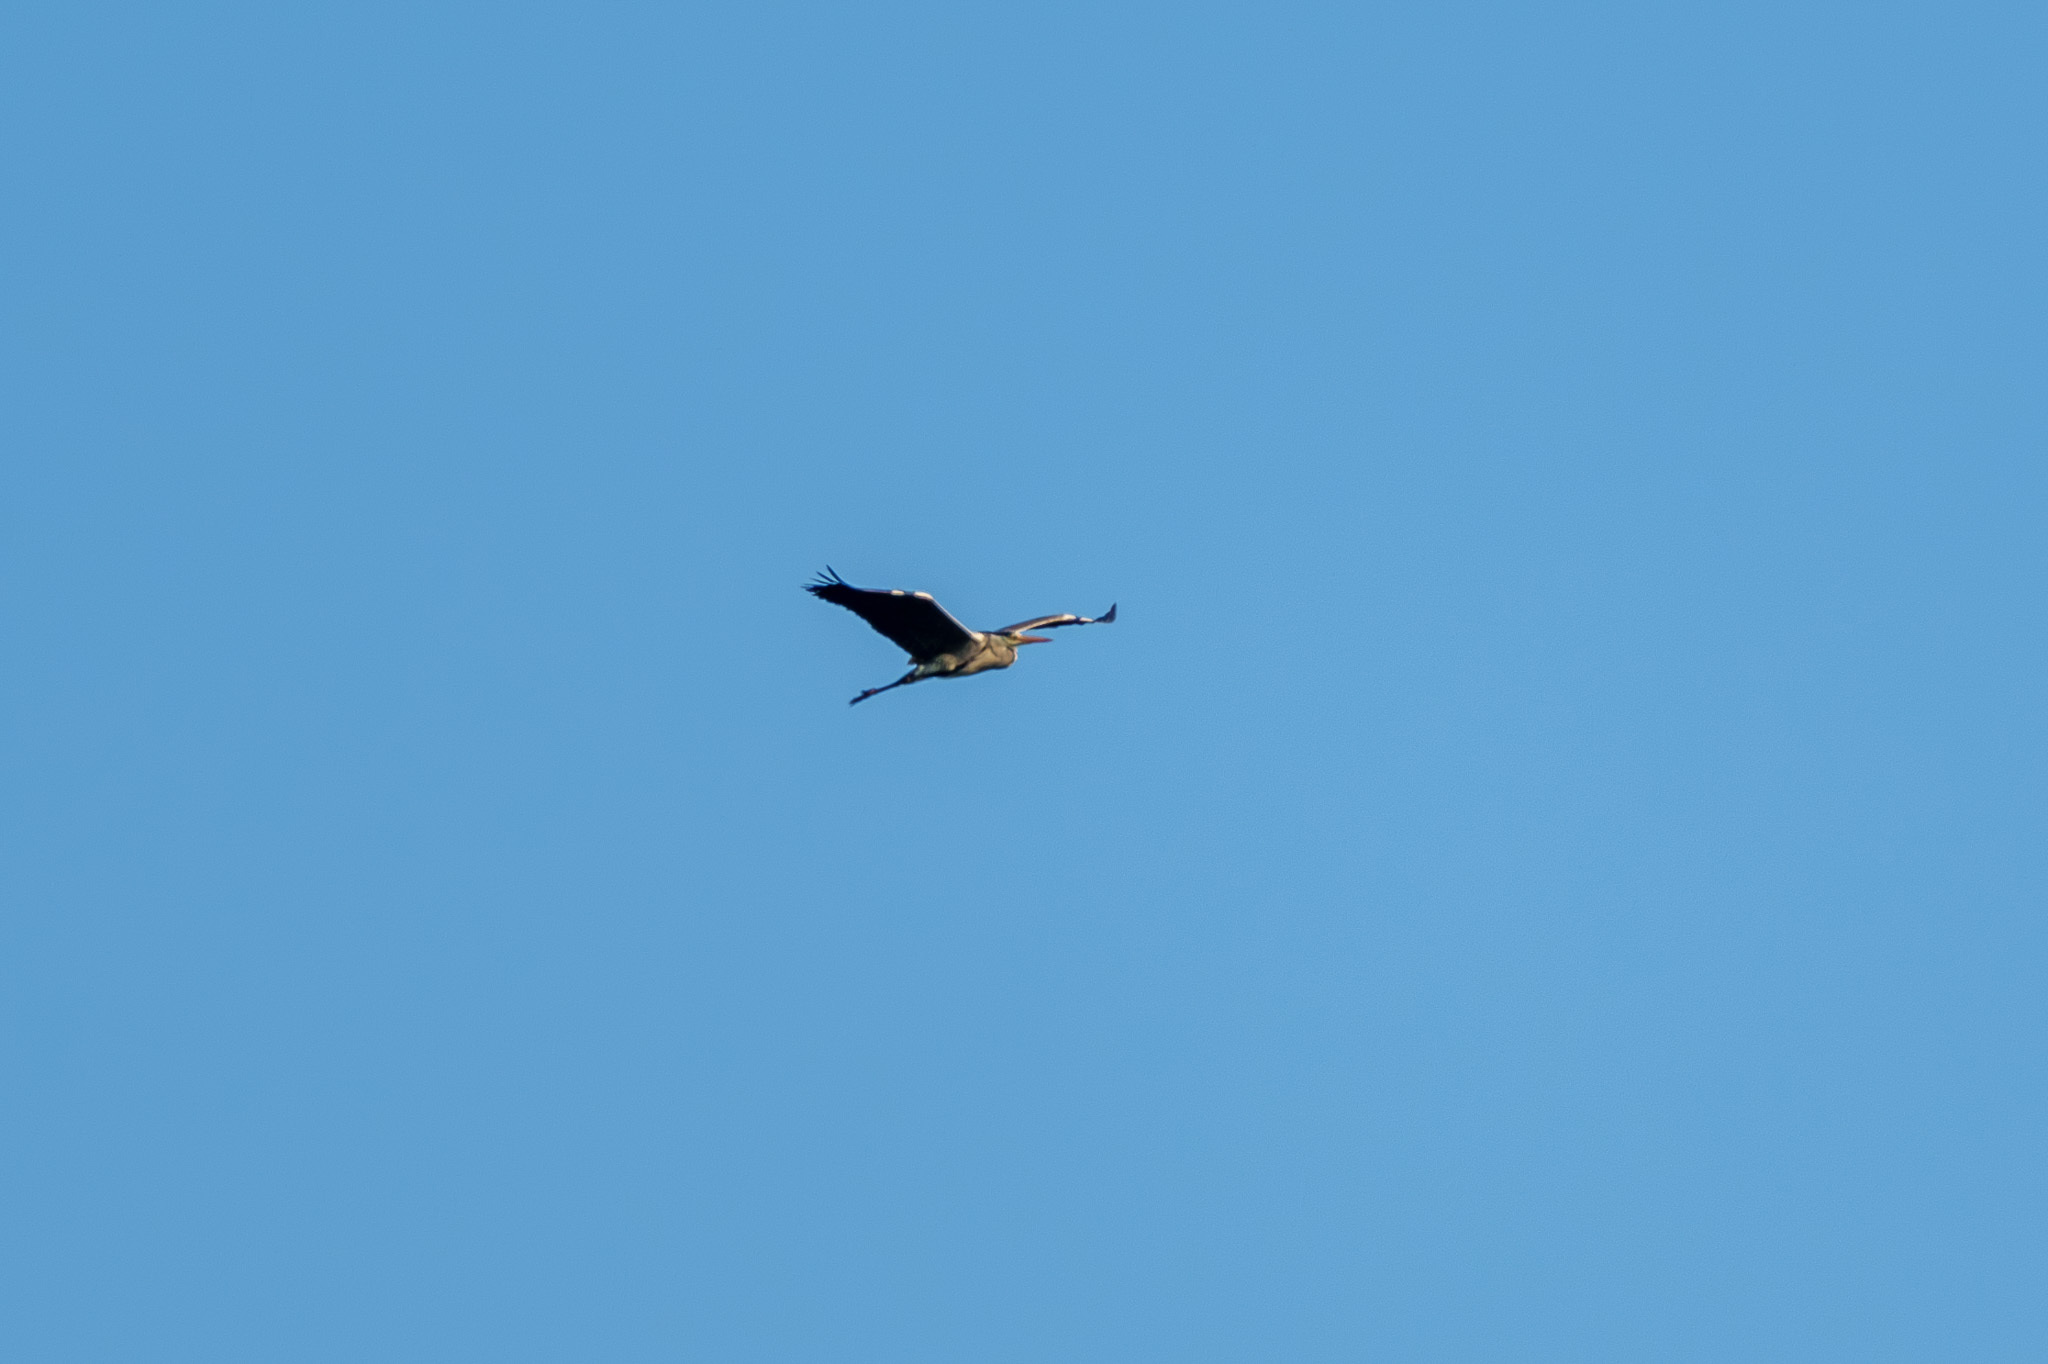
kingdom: Animalia
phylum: Chordata
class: Aves
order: Pelecaniformes
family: Ardeidae
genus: Ardea
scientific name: Ardea cinerea
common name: Grey heron
